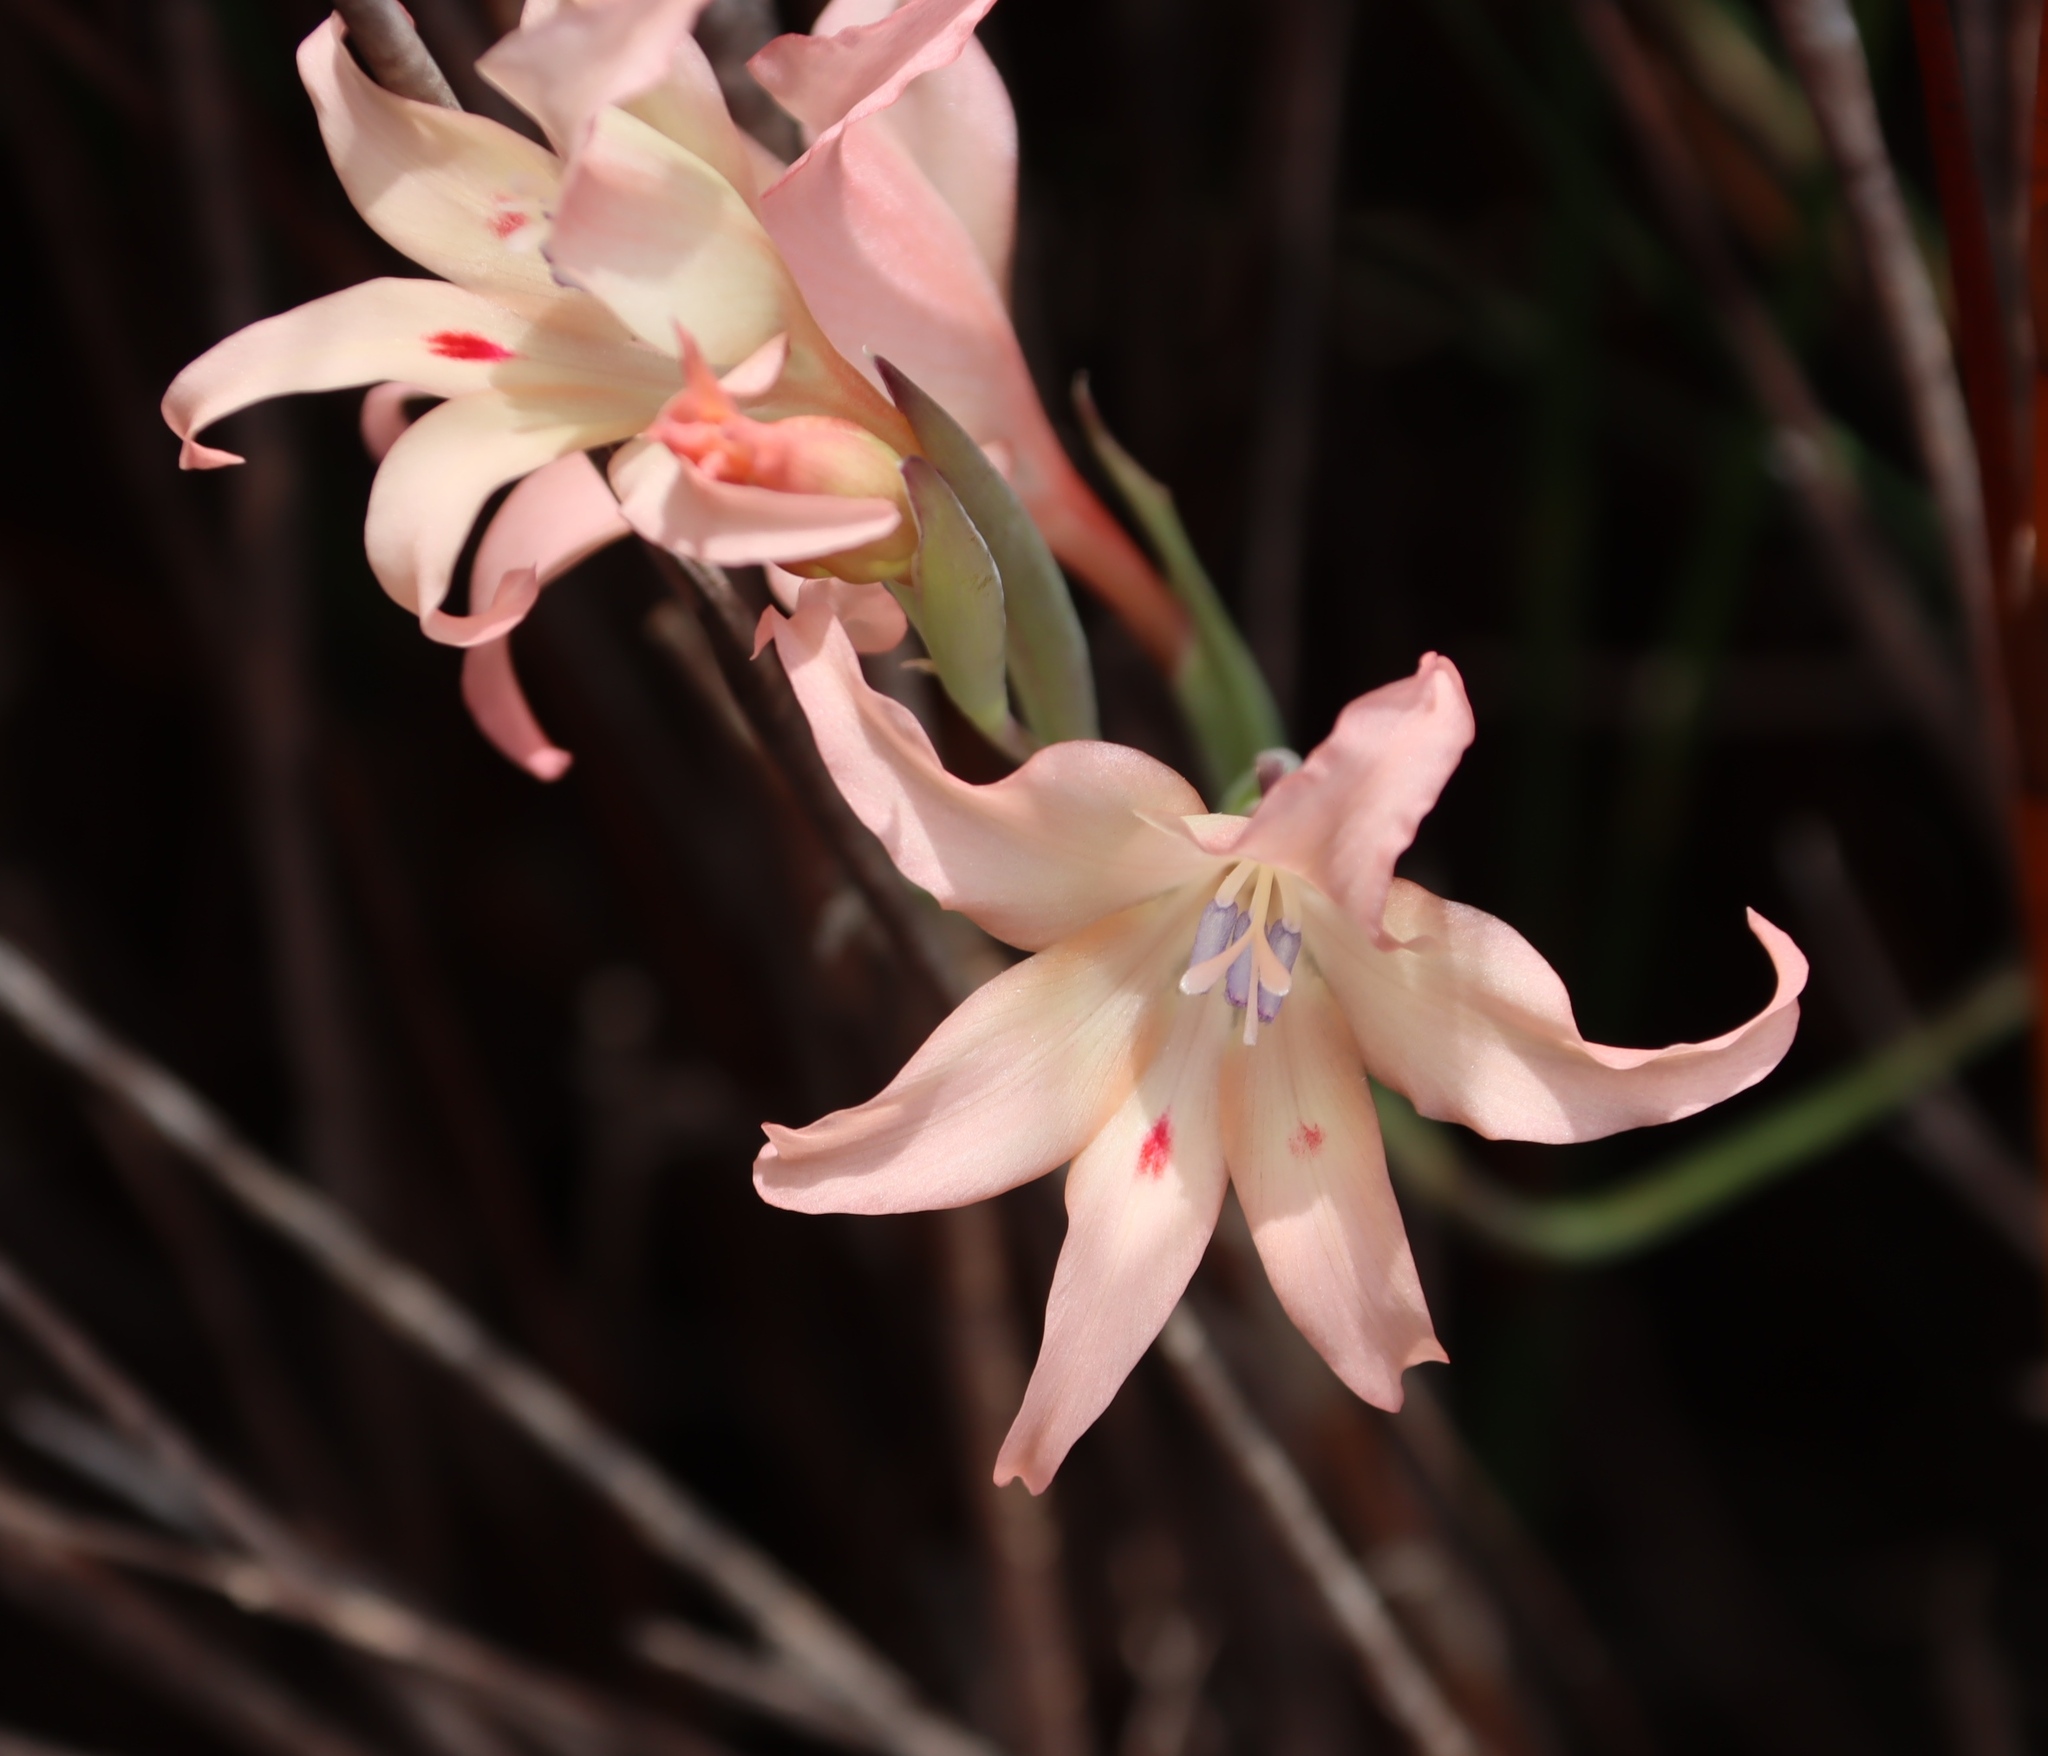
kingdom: Plantae
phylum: Tracheophyta
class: Liliopsida
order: Asparagales
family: Iridaceae
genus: Gladiolus
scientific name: Gladiolus undulatus
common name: Large painted-lady
